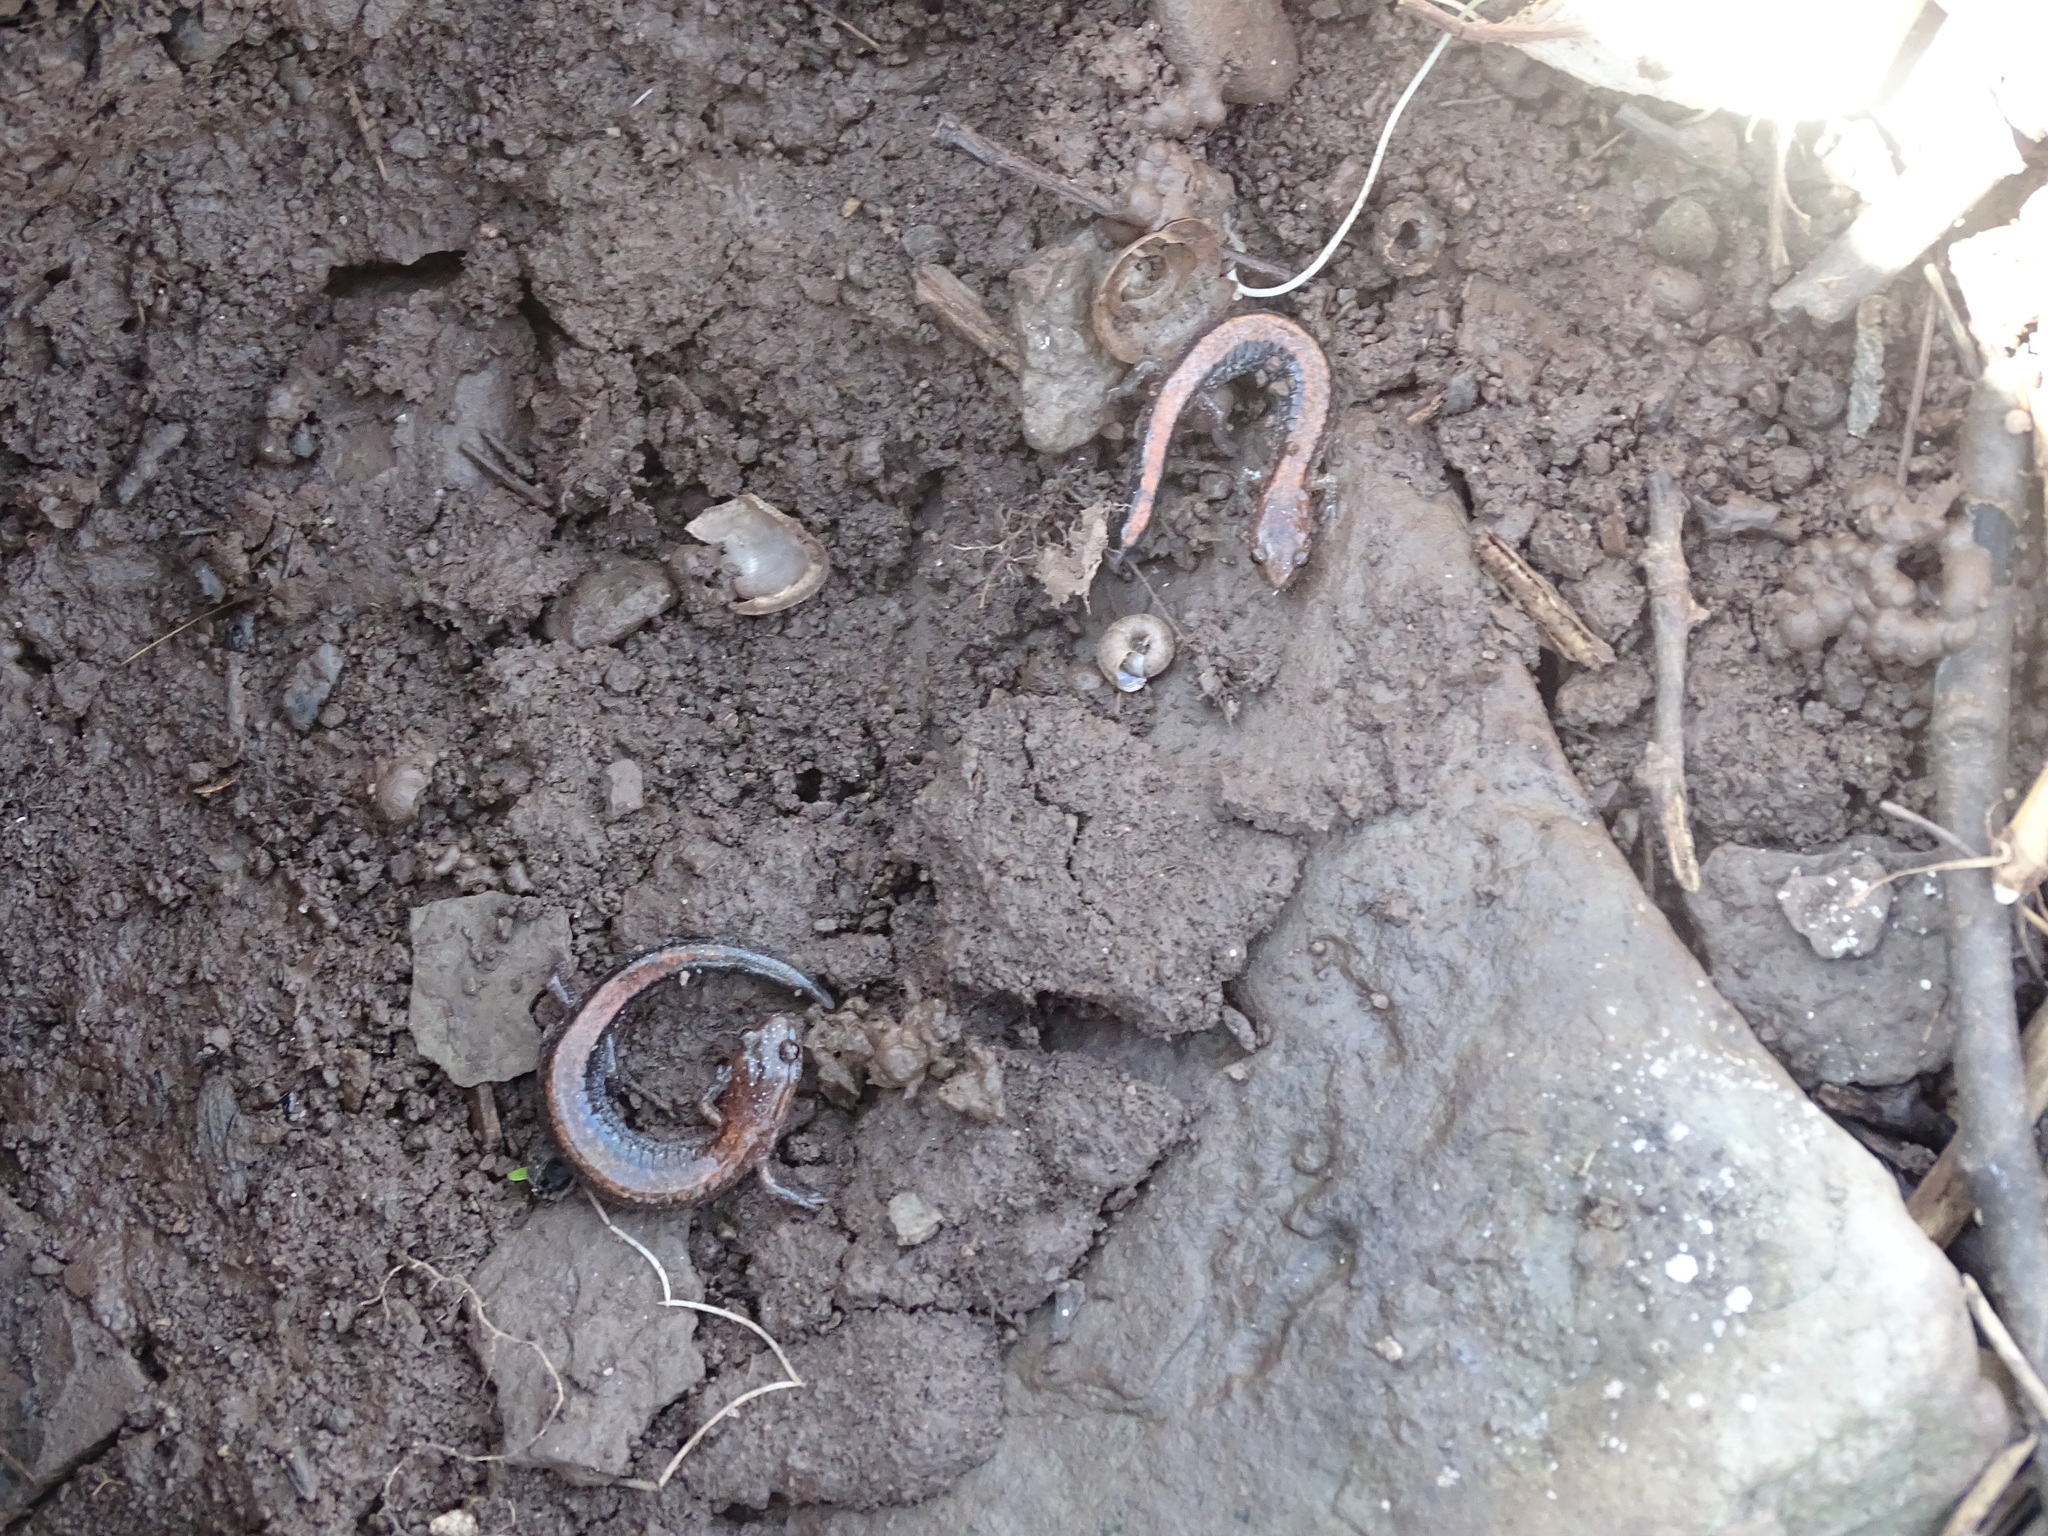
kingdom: Animalia
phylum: Chordata
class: Amphibia
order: Caudata
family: Plethodontidae
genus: Plethodon
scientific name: Plethodon cinereus
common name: Redback salamander
